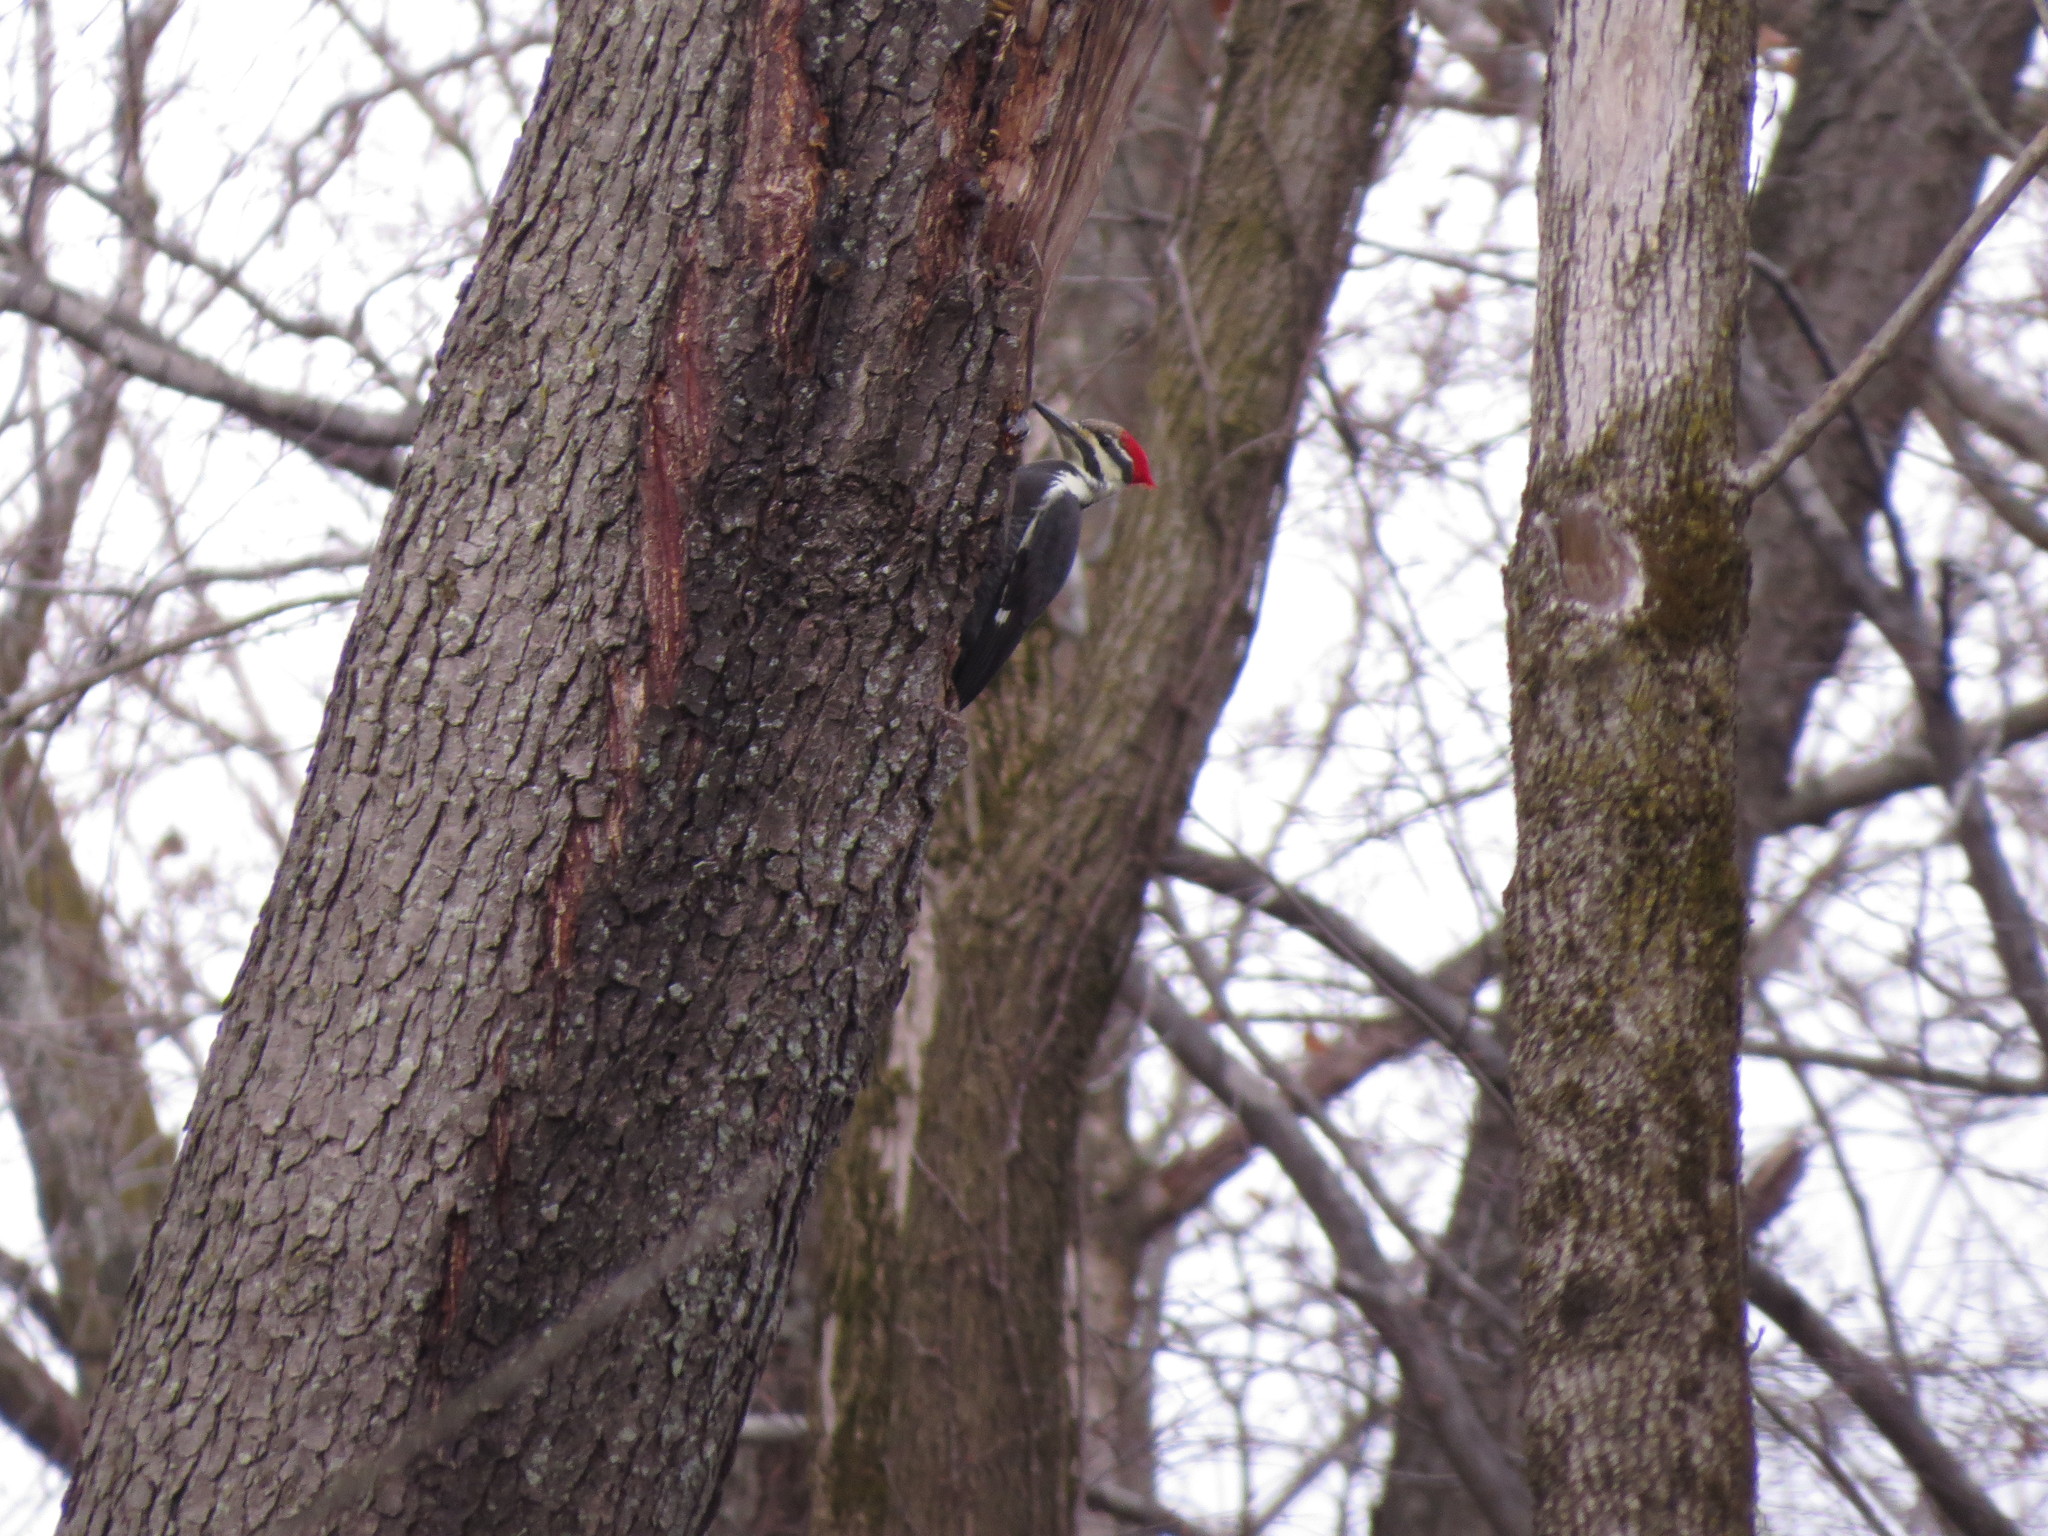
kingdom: Animalia
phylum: Chordata
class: Aves
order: Piciformes
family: Picidae
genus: Dryocopus
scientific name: Dryocopus pileatus
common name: Pileated woodpecker
